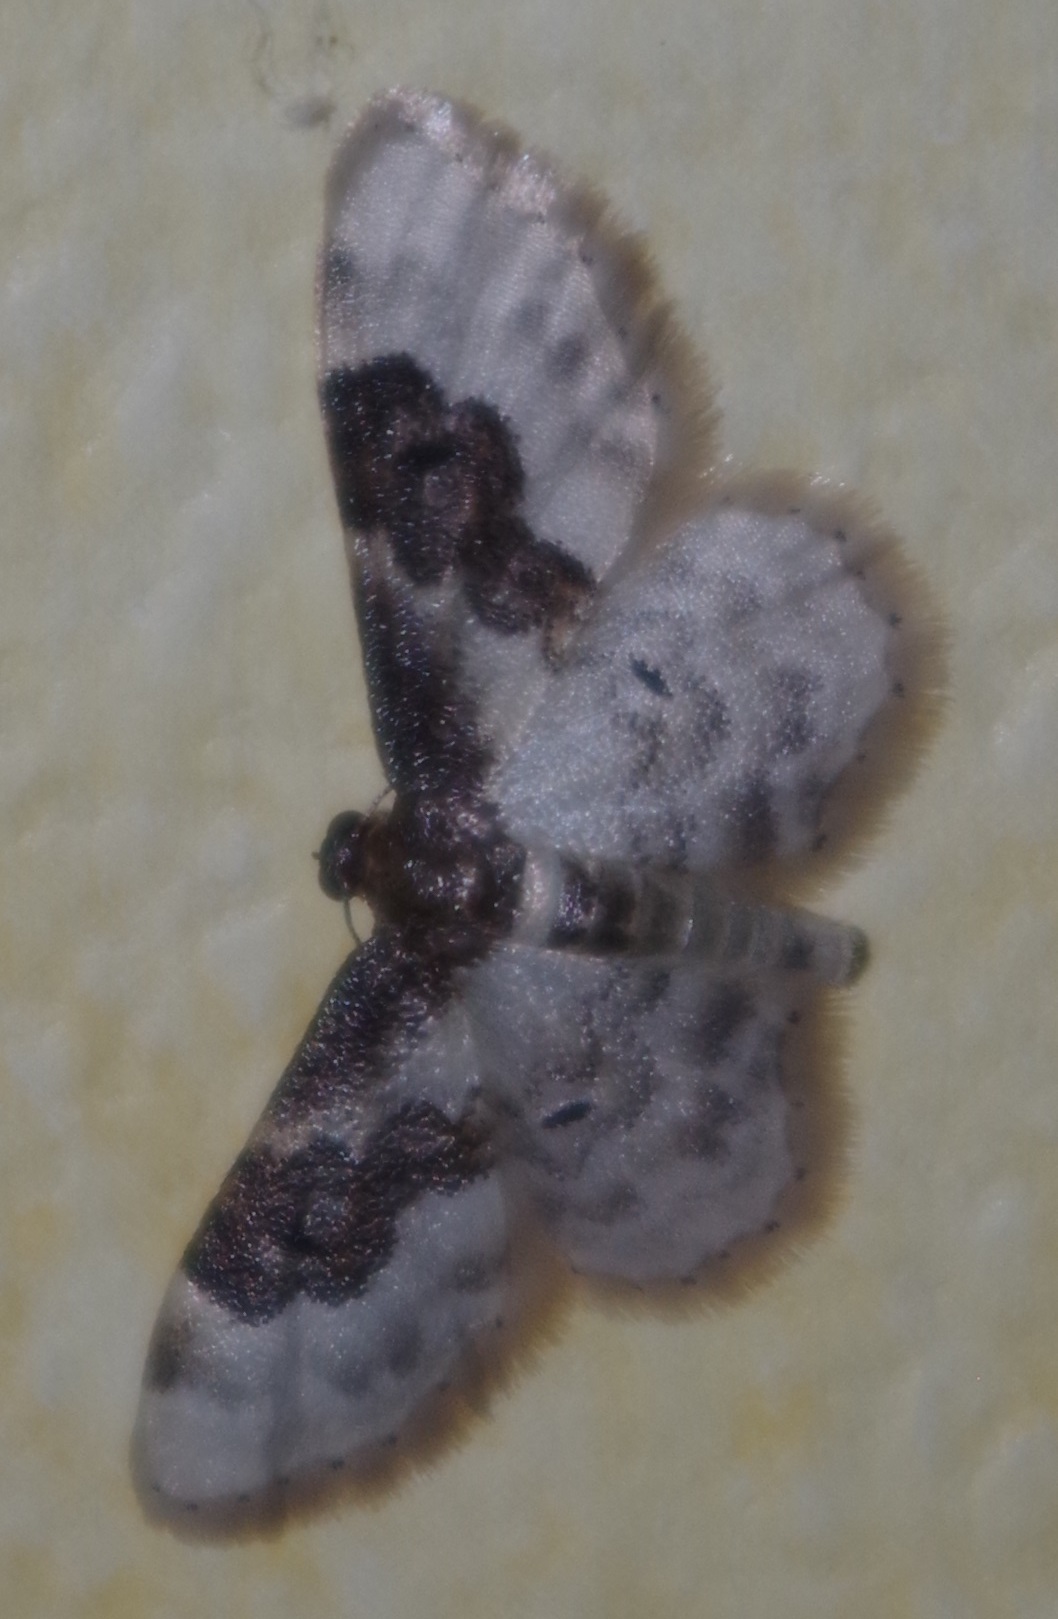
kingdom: Animalia
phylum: Arthropoda
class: Insecta
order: Lepidoptera
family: Geometridae
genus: Idaea
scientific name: Idaea rusticata
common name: Least carpet
